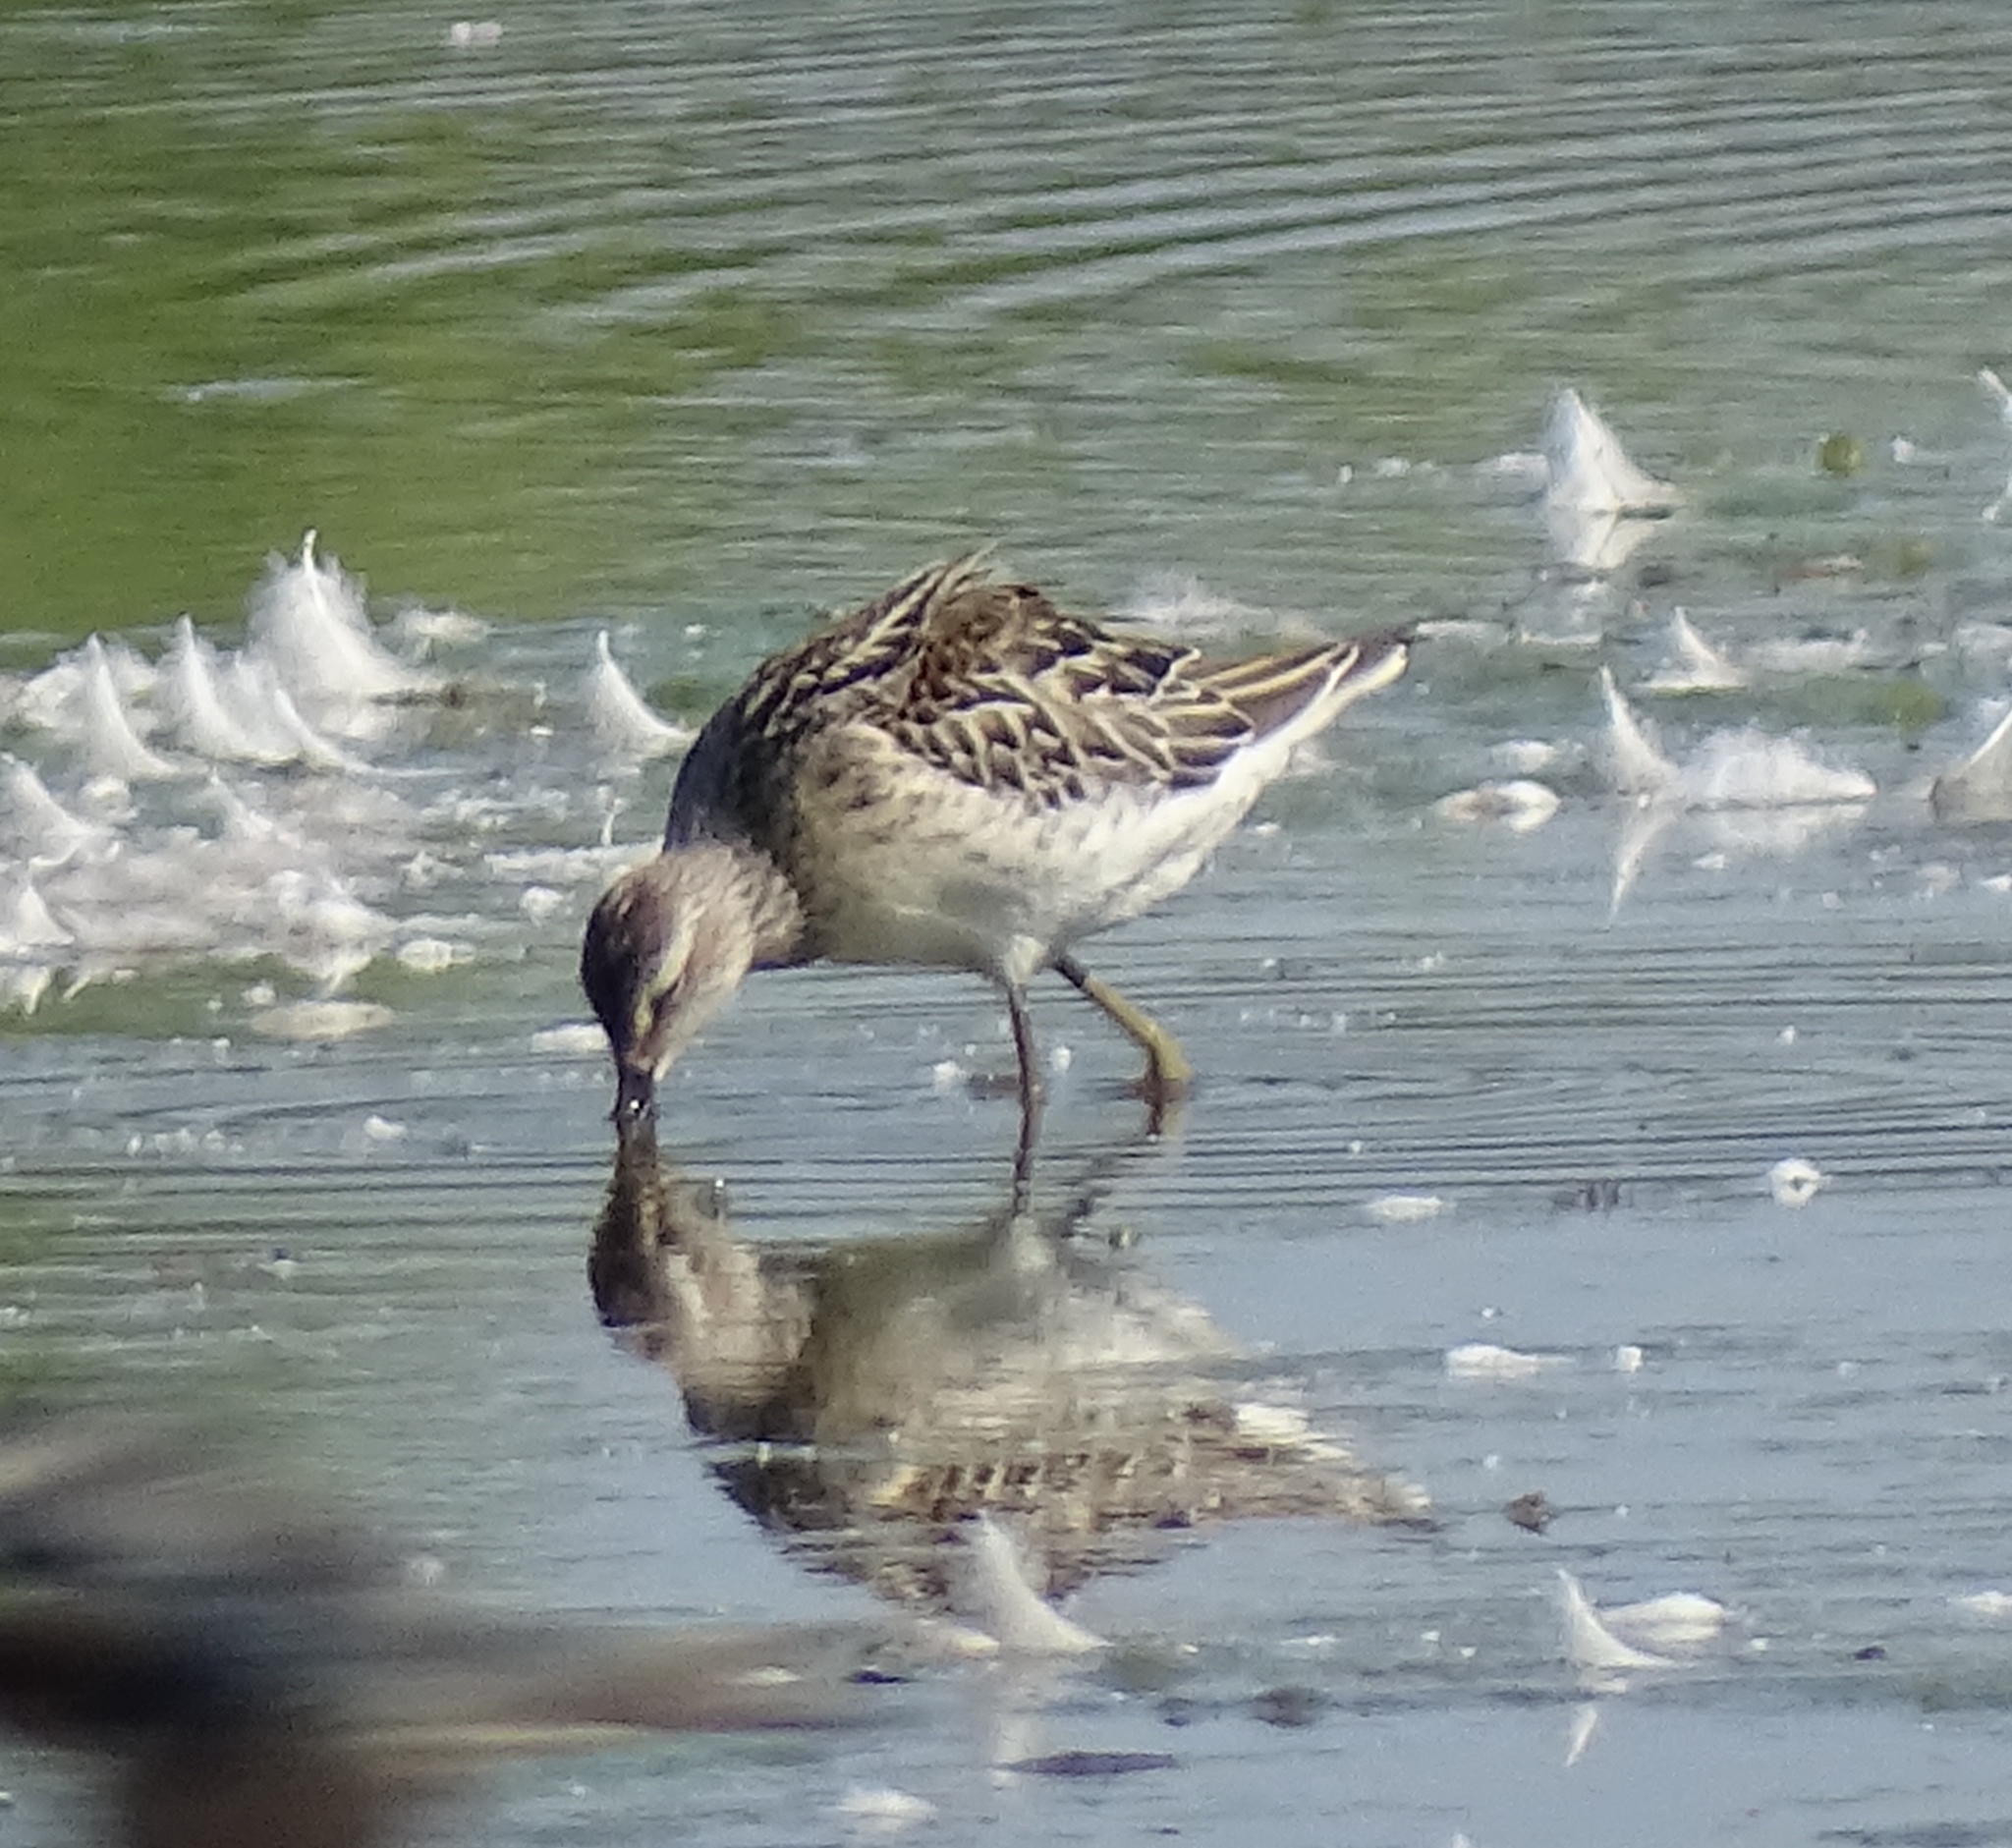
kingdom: Animalia
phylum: Chordata
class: Aves
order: Charadriiformes
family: Scolopacidae
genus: Calidris
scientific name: Calidris himantopus
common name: Stilt sandpiper
